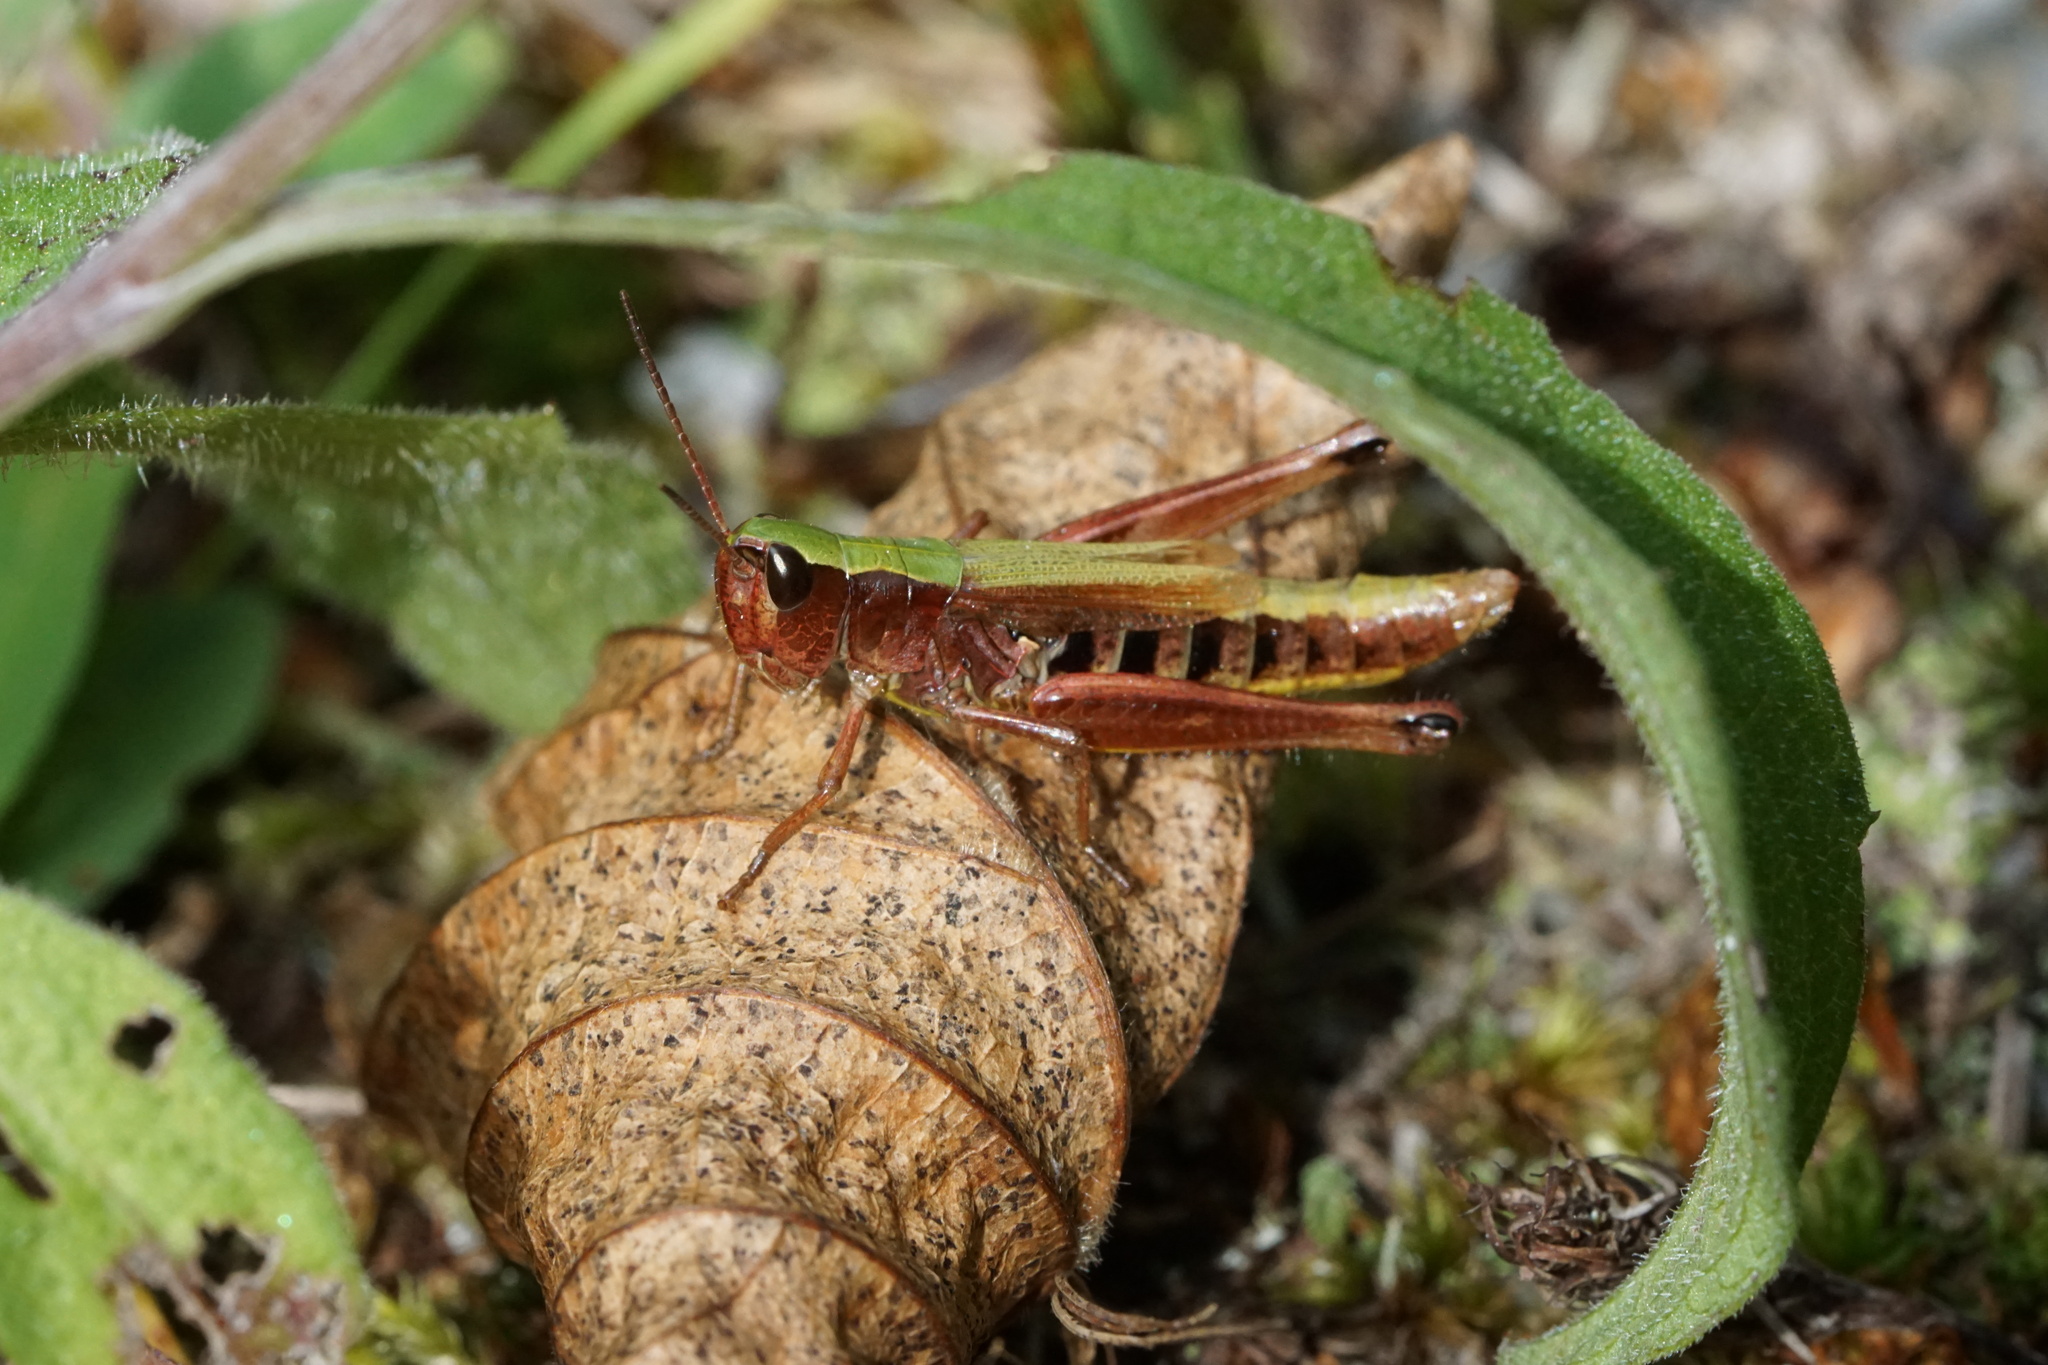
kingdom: Animalia
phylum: Arthropoda
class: Insecta
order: Orthoptera
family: Acrididae
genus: Pseudochorthippus
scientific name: Pseudochorthippus curtipennis
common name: Marsh meadow grasshopper
